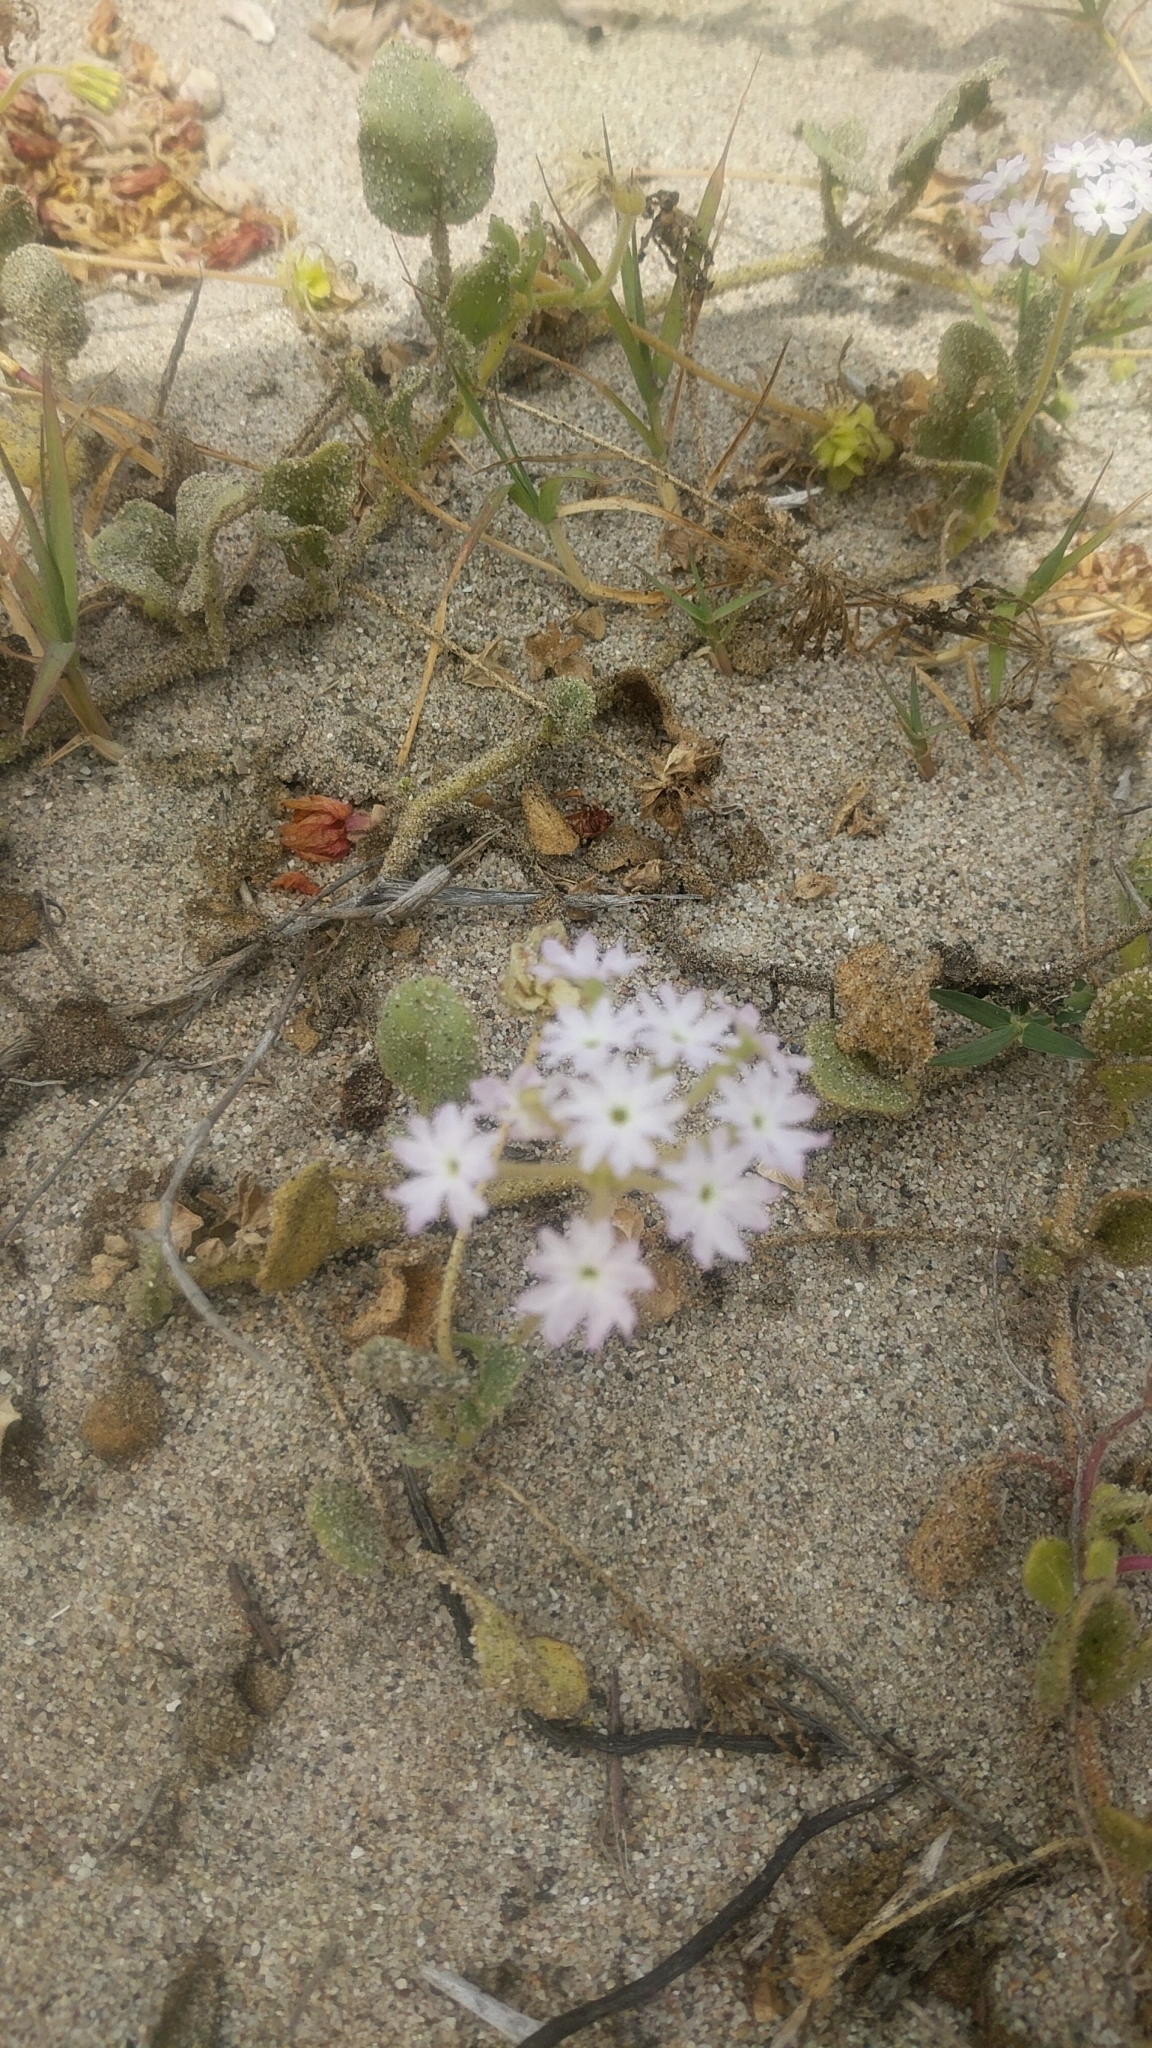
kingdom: Plantae
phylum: Tracheophyta
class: Magnoliopsida
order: Caryophyllales
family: Nyctaginaceae
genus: Abronia
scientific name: Abronia umbellata
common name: Sand-verbena
